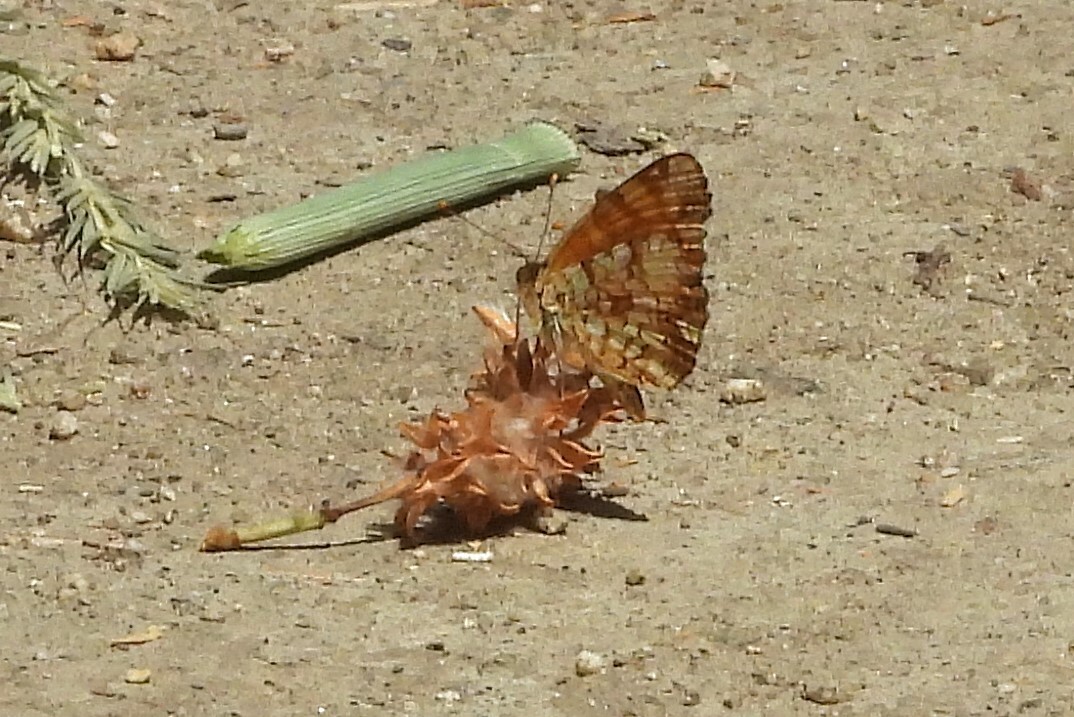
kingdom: Animalia
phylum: Arthropoda
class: Insecta
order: Lepidoptera
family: Nymphalidae
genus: Eresia
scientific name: Eresia aveyrona
